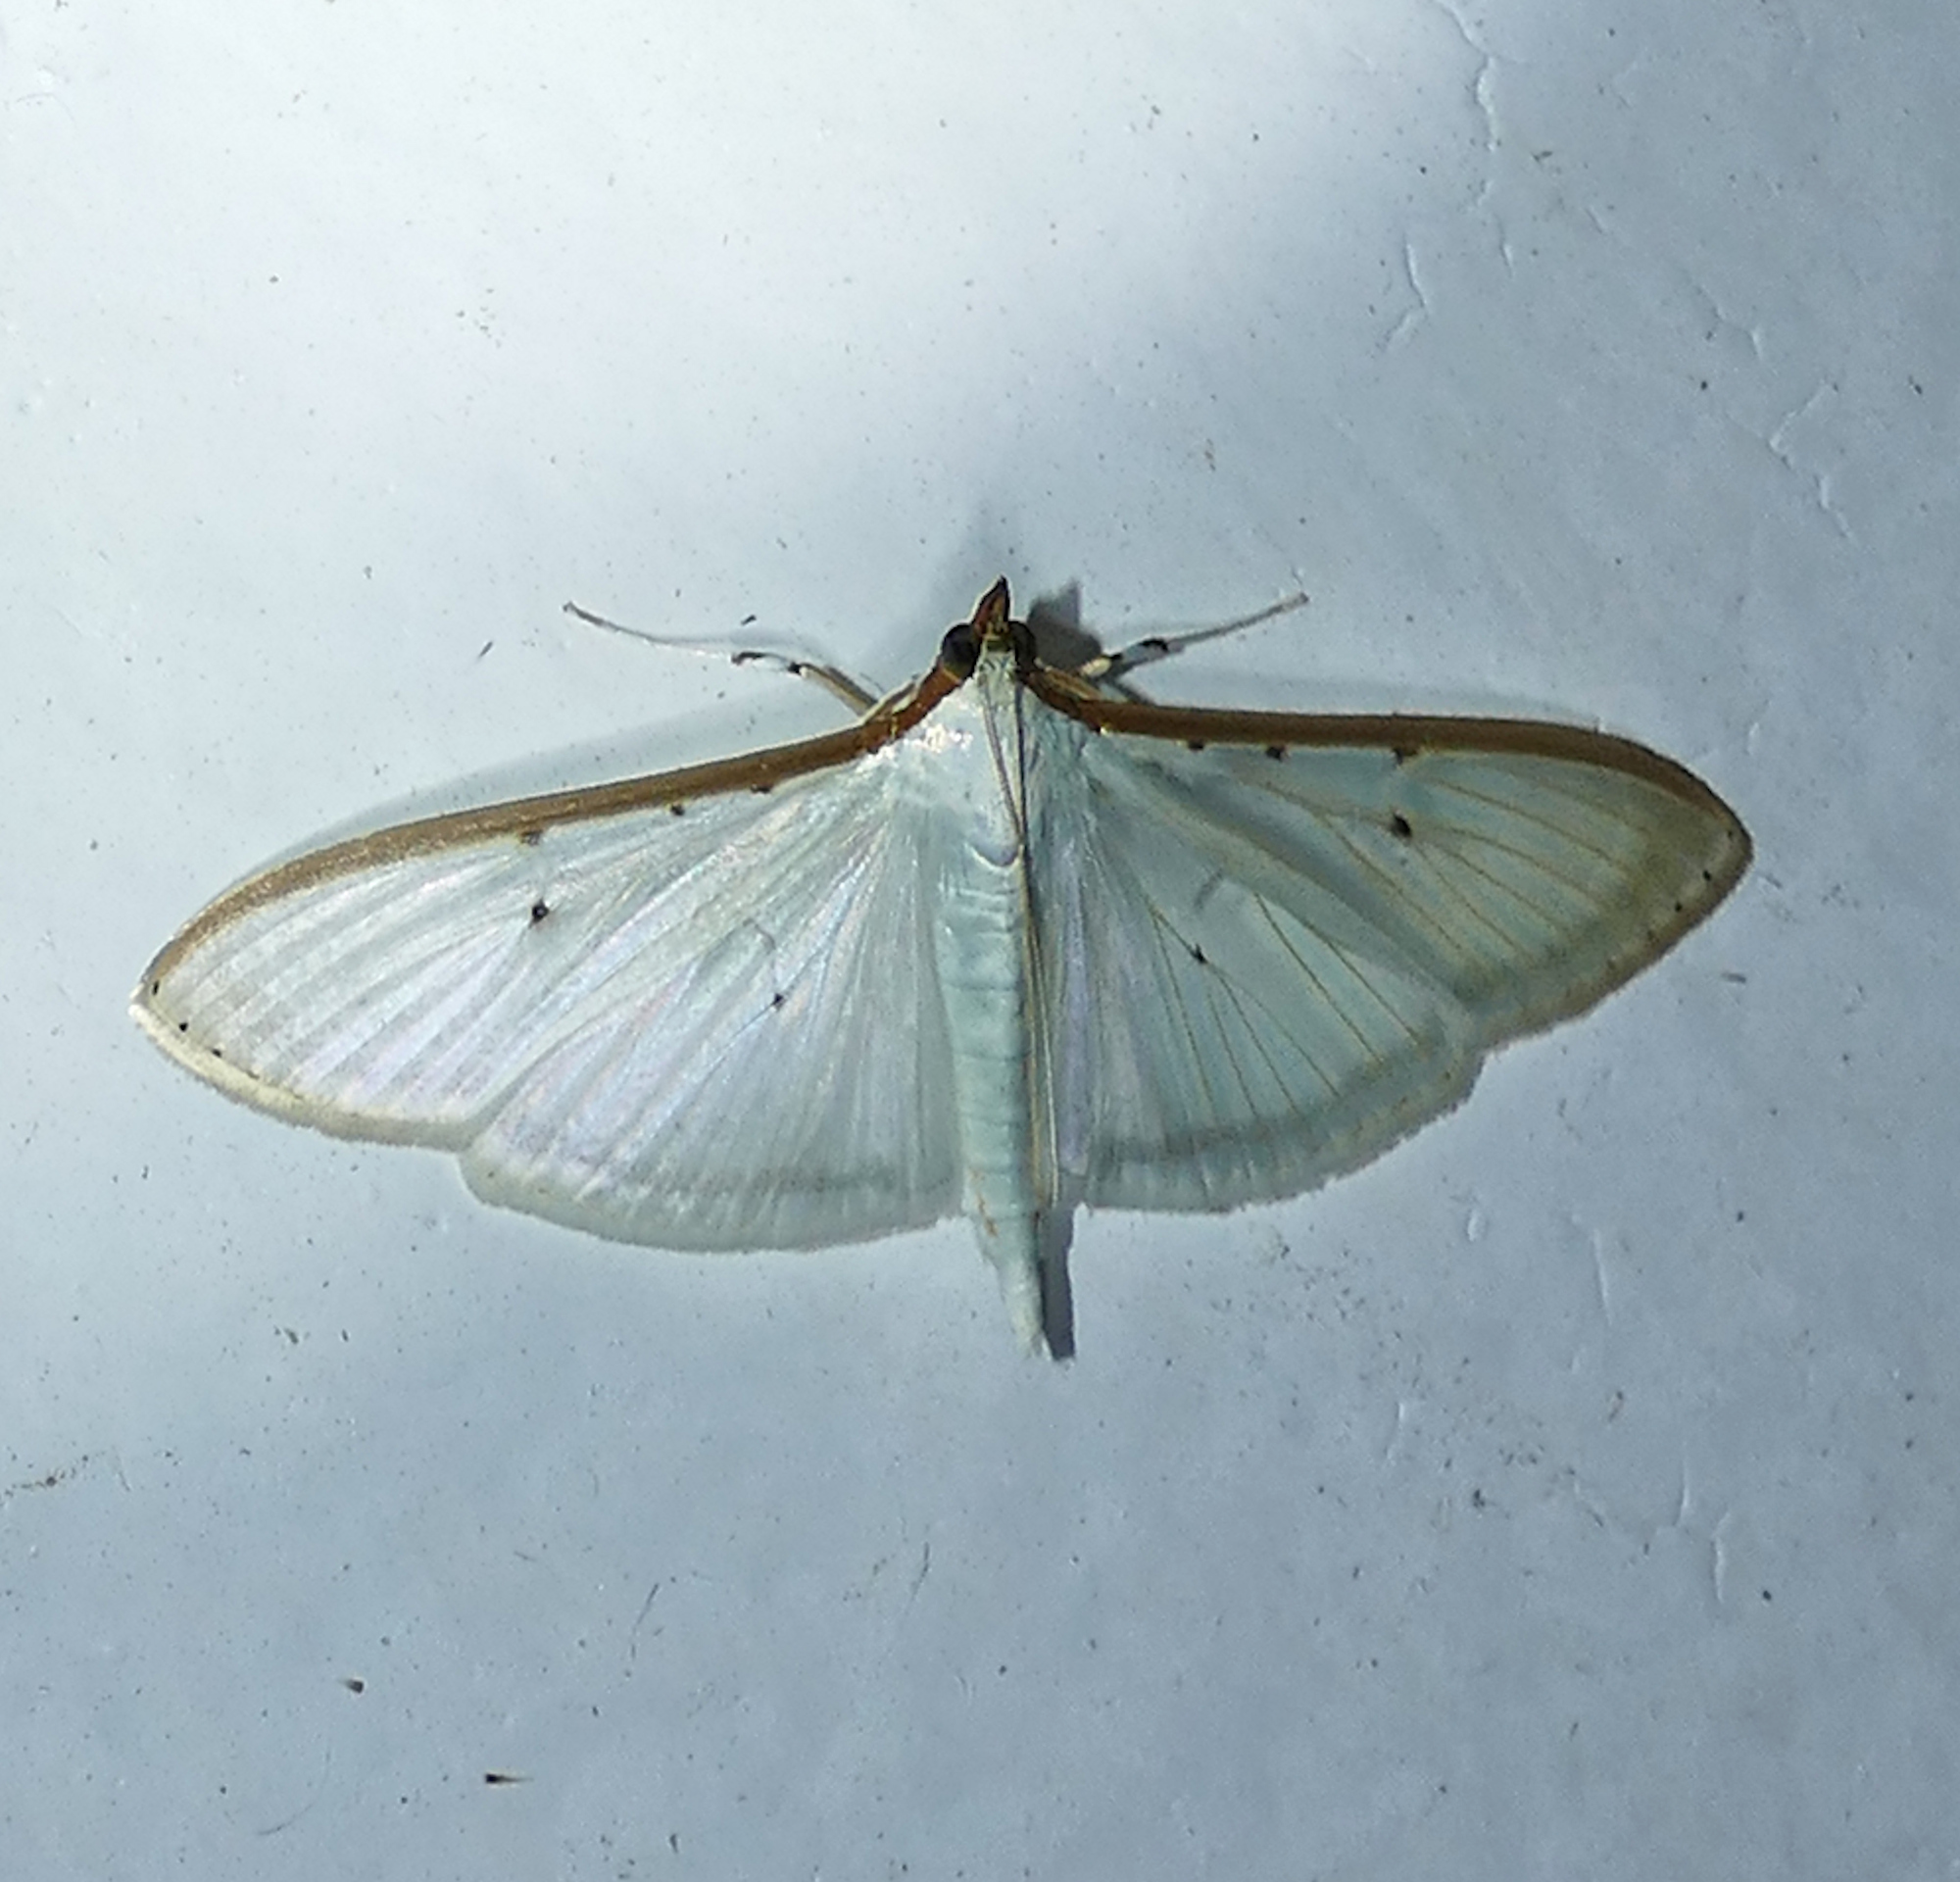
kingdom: Animalia
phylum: Arthropoda
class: Insecta
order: Lepidoptera
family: Crambidae
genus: Palpita
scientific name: Palpita quadristigmalis
